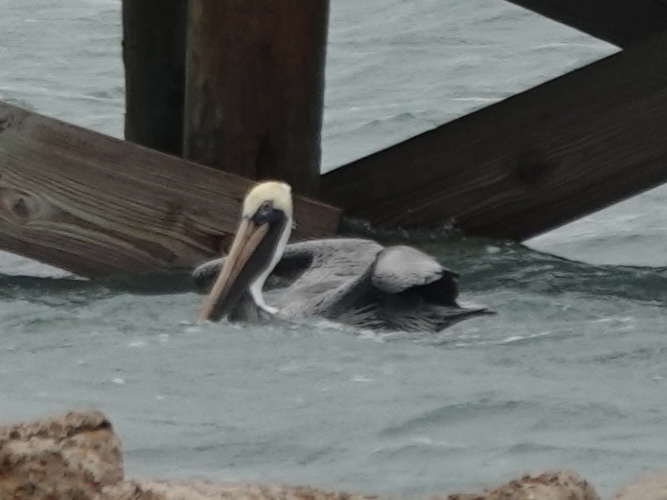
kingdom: Animalia
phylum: Chordata
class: Aves
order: Pelecaniformes
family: Pelecanidae
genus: Pelecanus
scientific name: Pelecanus occidentalis
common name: Brown pelican
